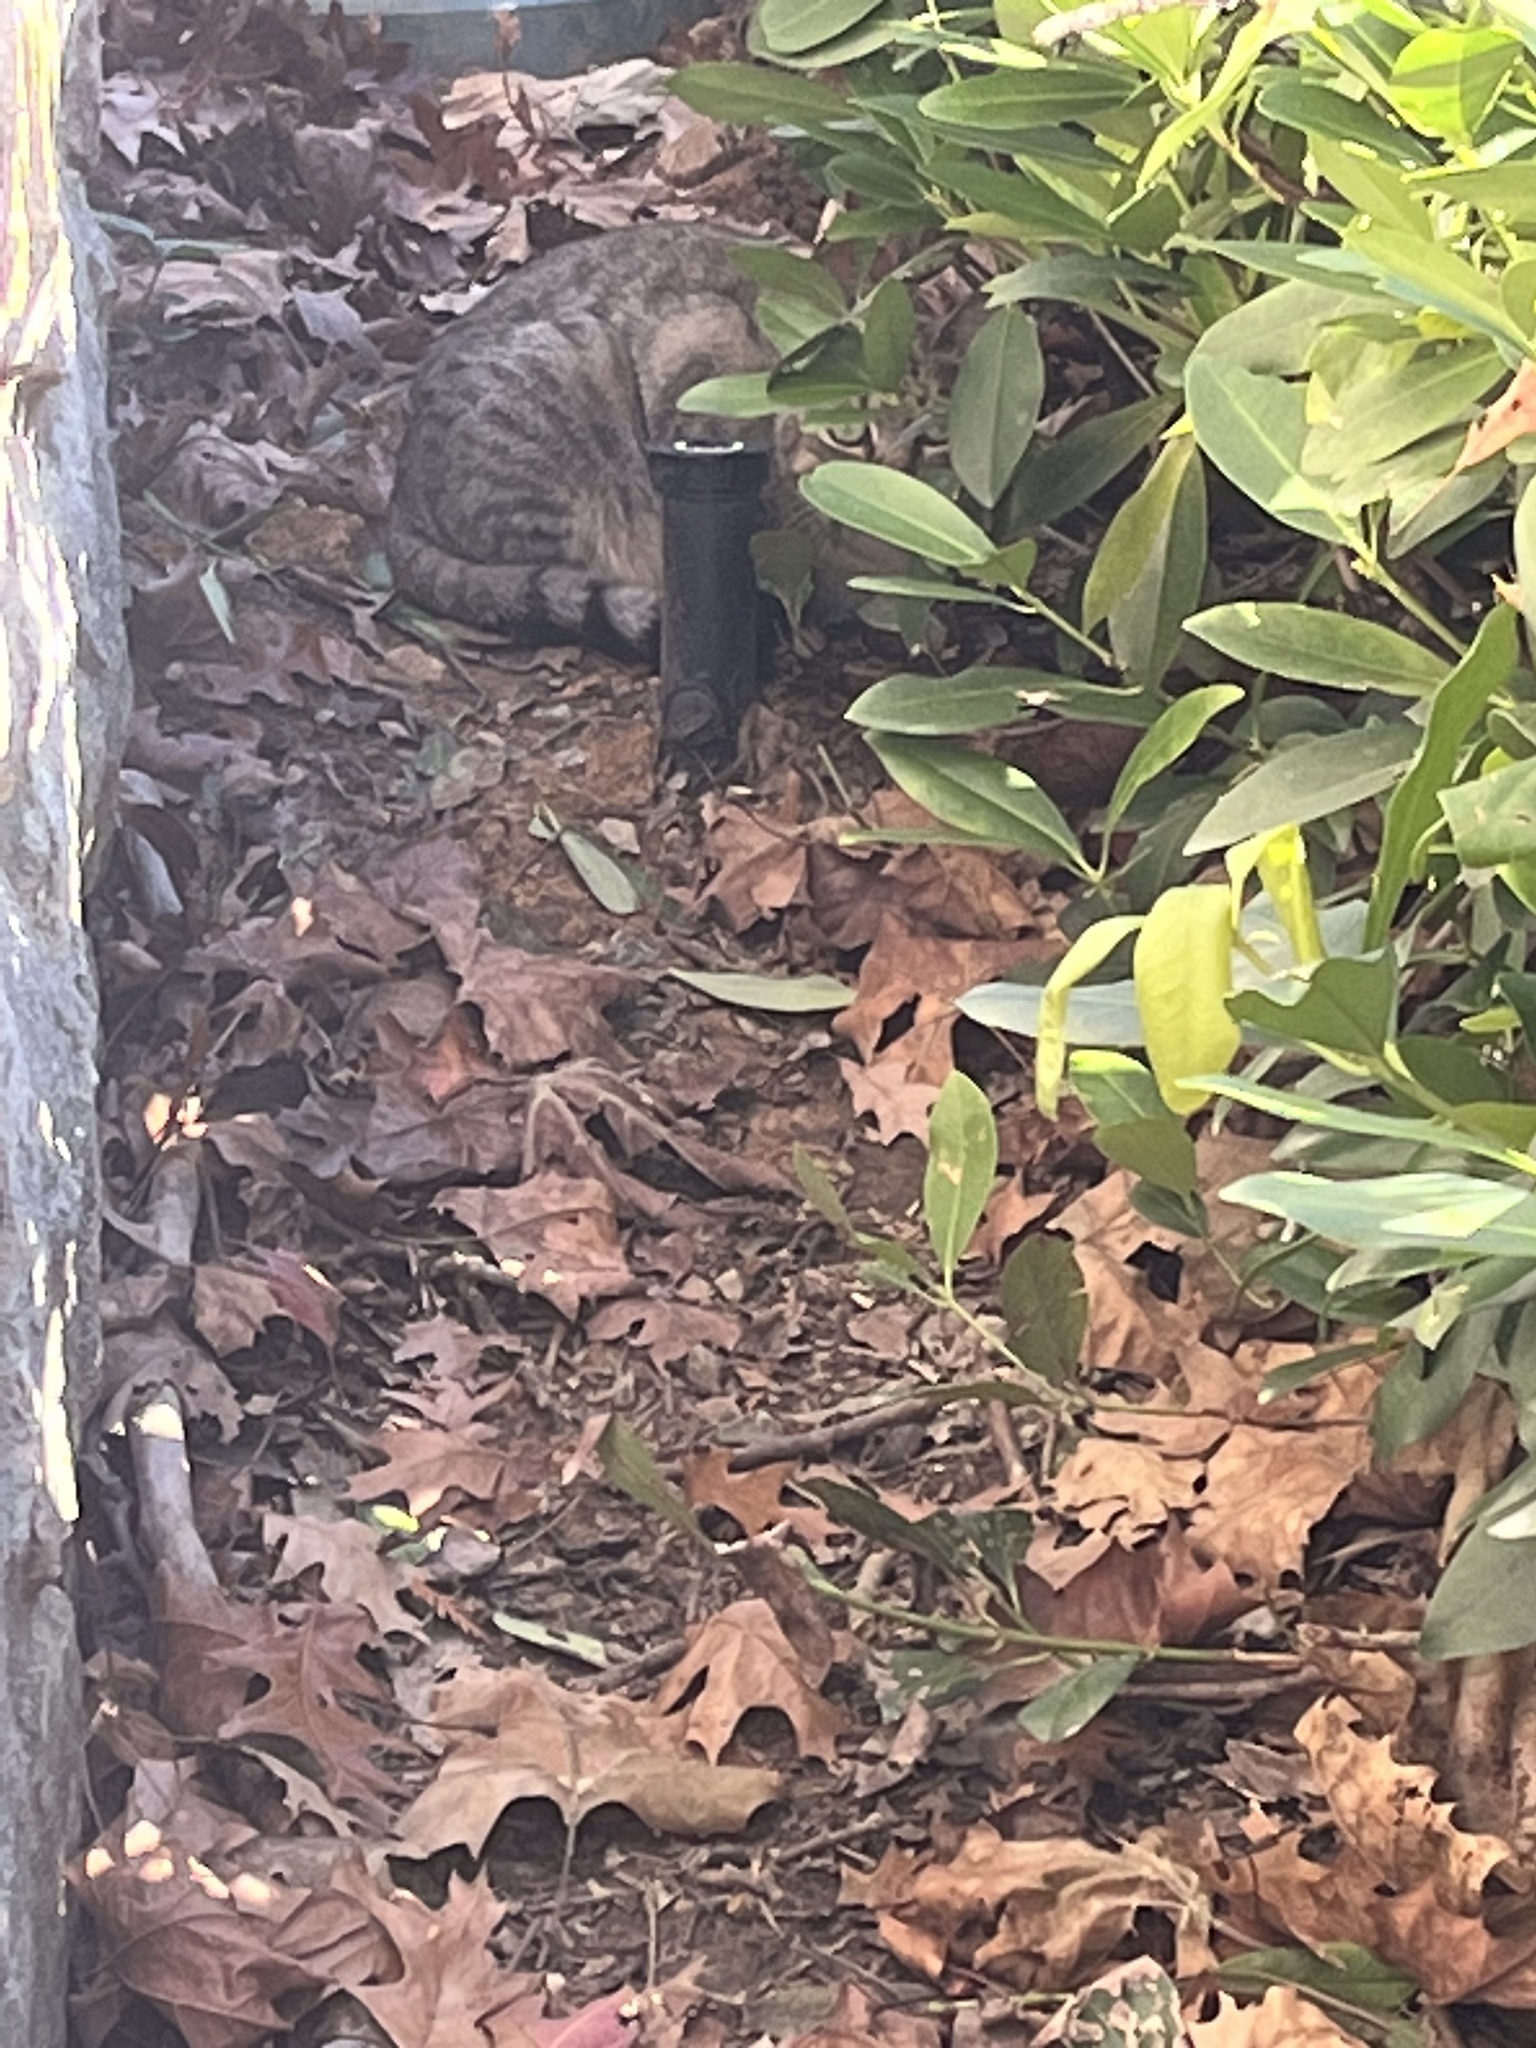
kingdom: Animalia
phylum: Chordata
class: Mammalia
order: Carnivora
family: Felidae
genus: Felis
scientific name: Felis catus
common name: Domestic cat
